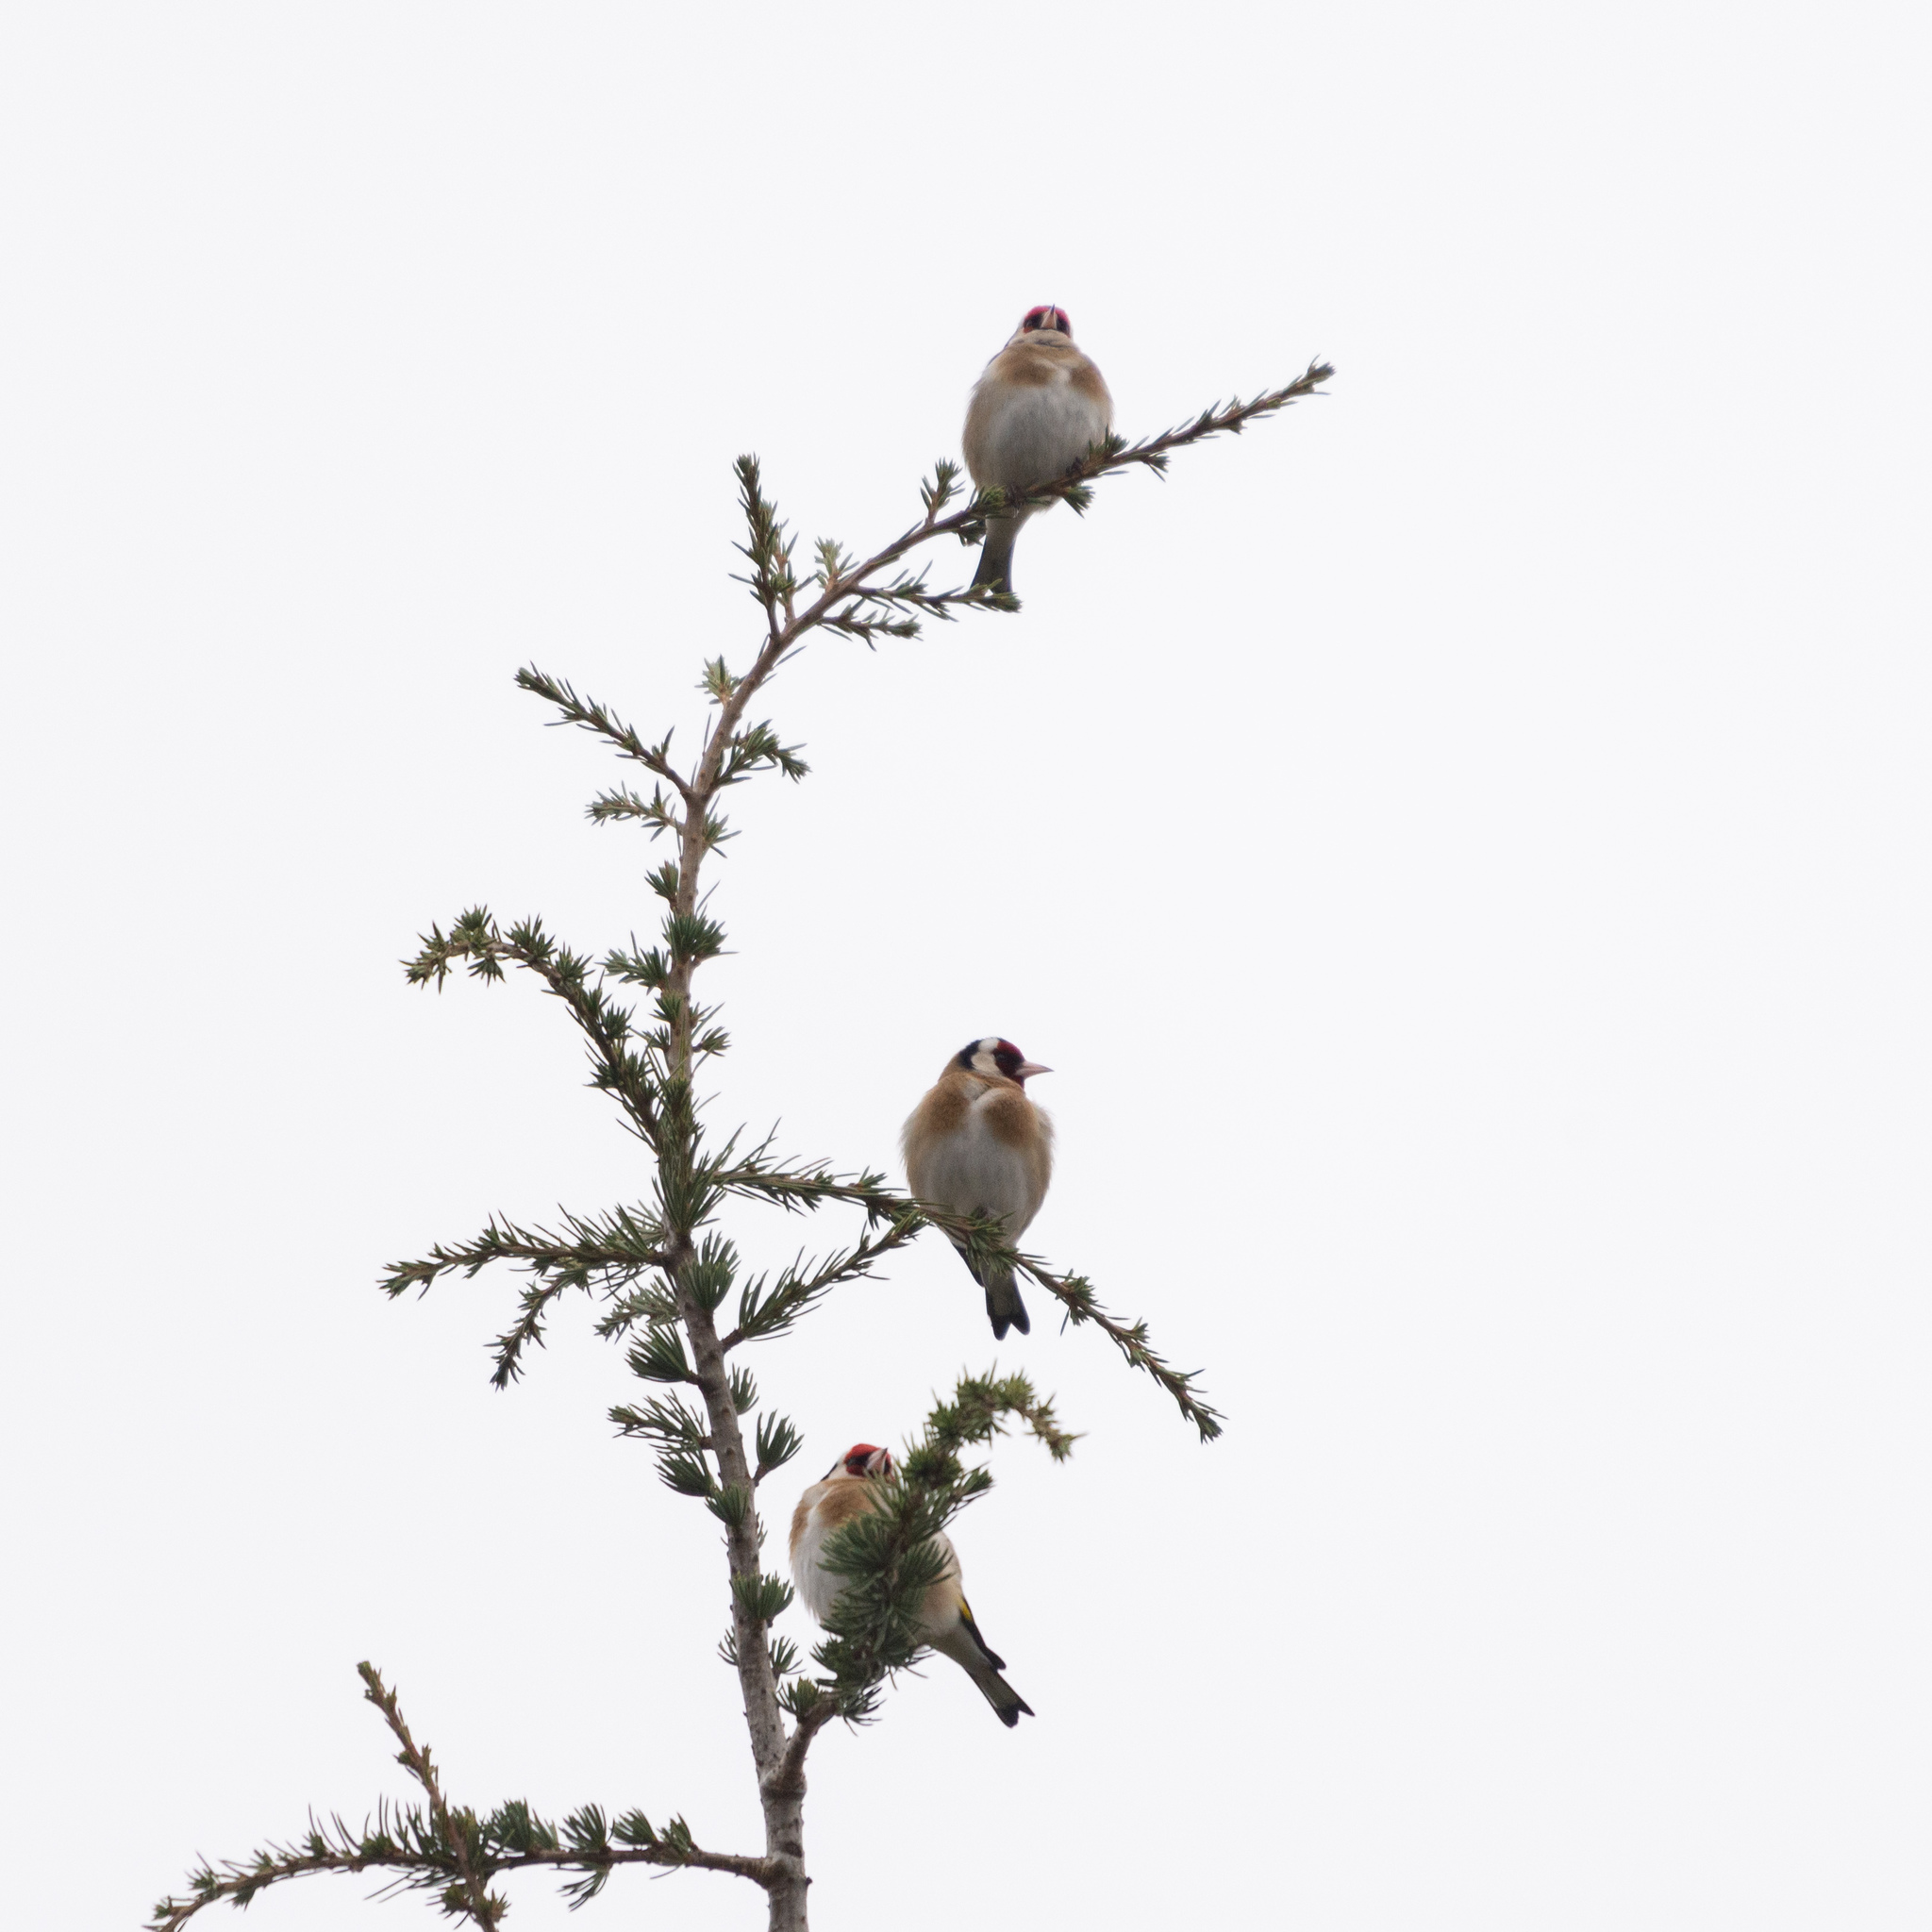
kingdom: Animalia
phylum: Chordata
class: Aves
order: Passeriformes
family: Fringillidae
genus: Carduelis
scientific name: Carduelis carduelis
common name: European goldfinch
